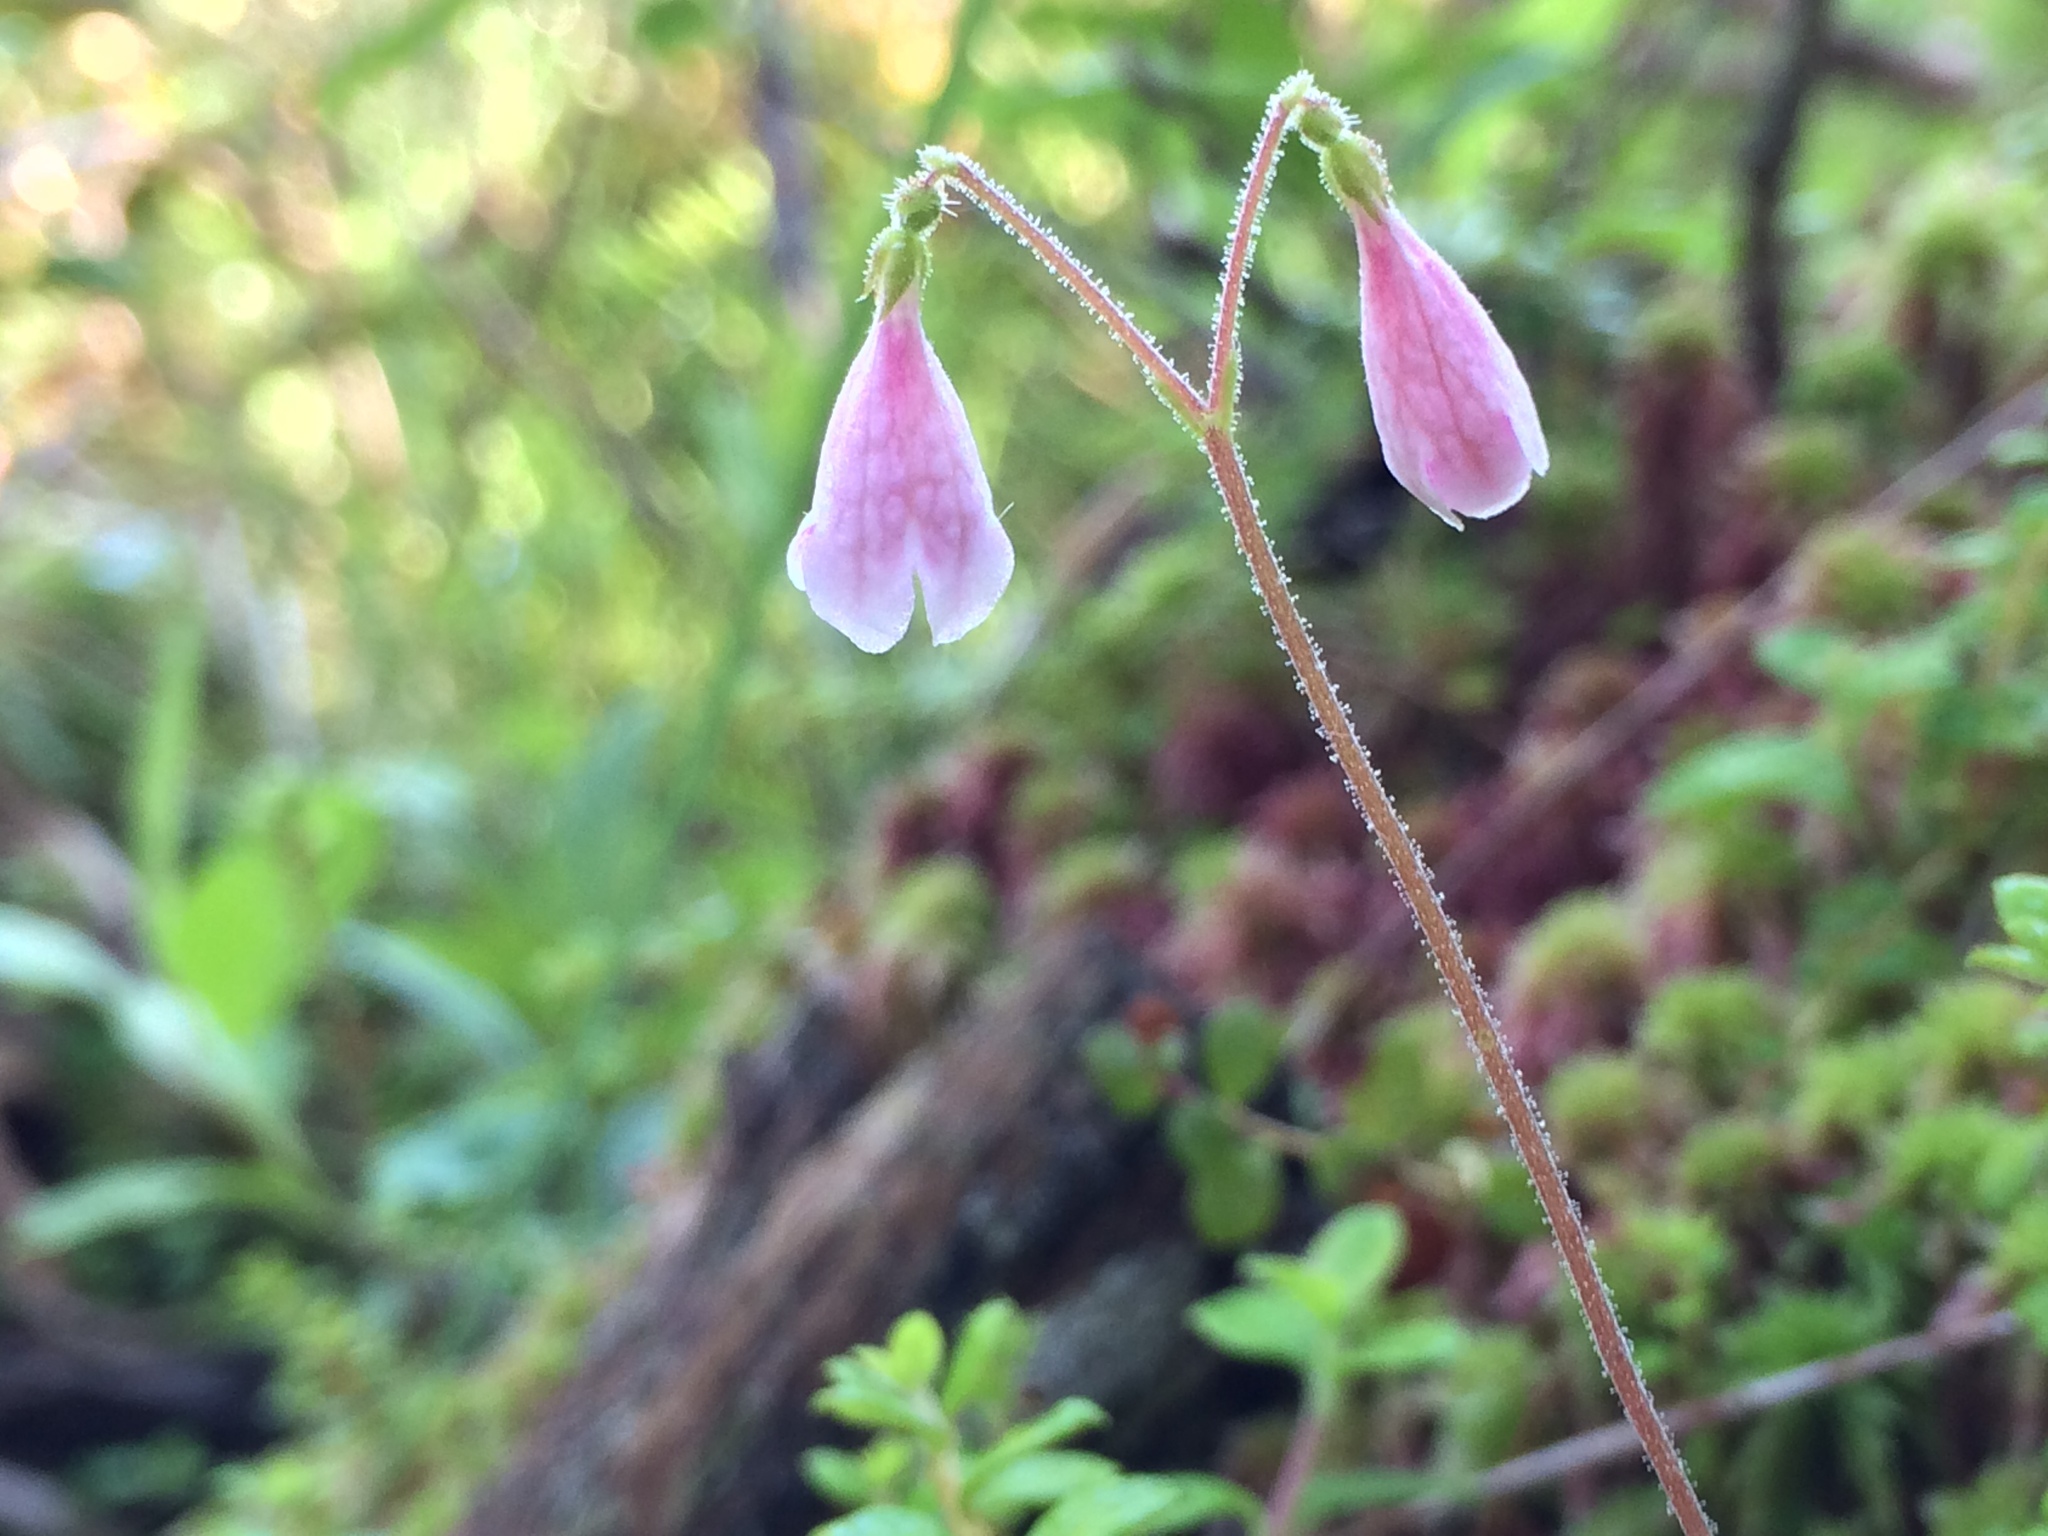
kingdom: Plantae
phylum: Tracheophyta
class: Magnoliopsida
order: Dipsacales
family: Caprifoliaceae
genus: Linnaea
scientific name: Linnaea borealis
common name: Twinflower
